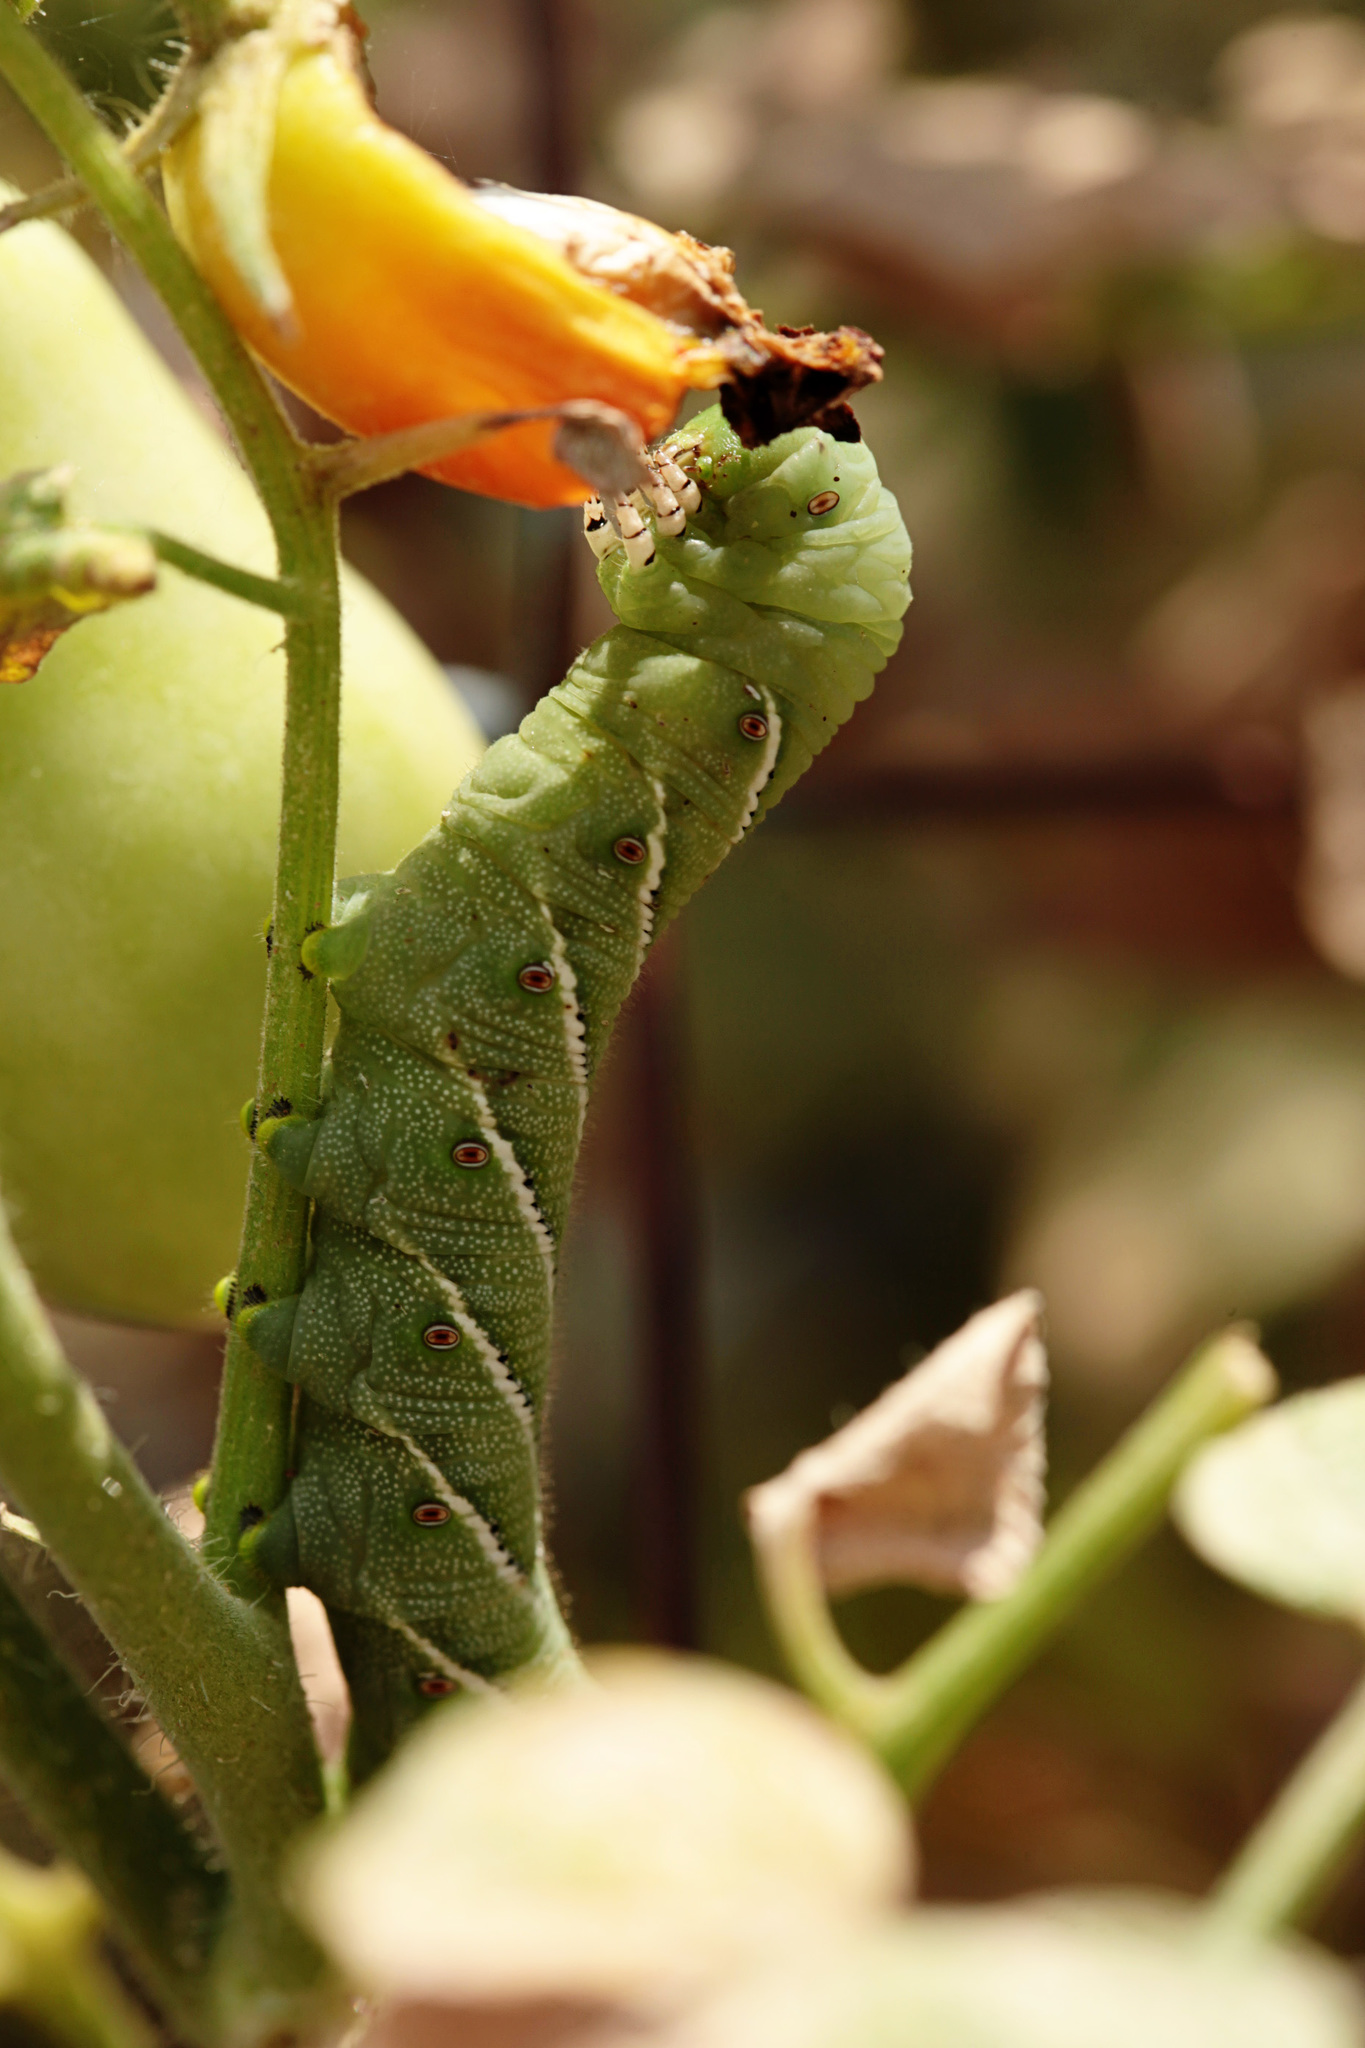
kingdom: Animalia
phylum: Arthropoda
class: Insecta
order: Lepidoptera
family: Sphingidae
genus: Manduca
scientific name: Manduca sexta
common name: Carolina sphinx
